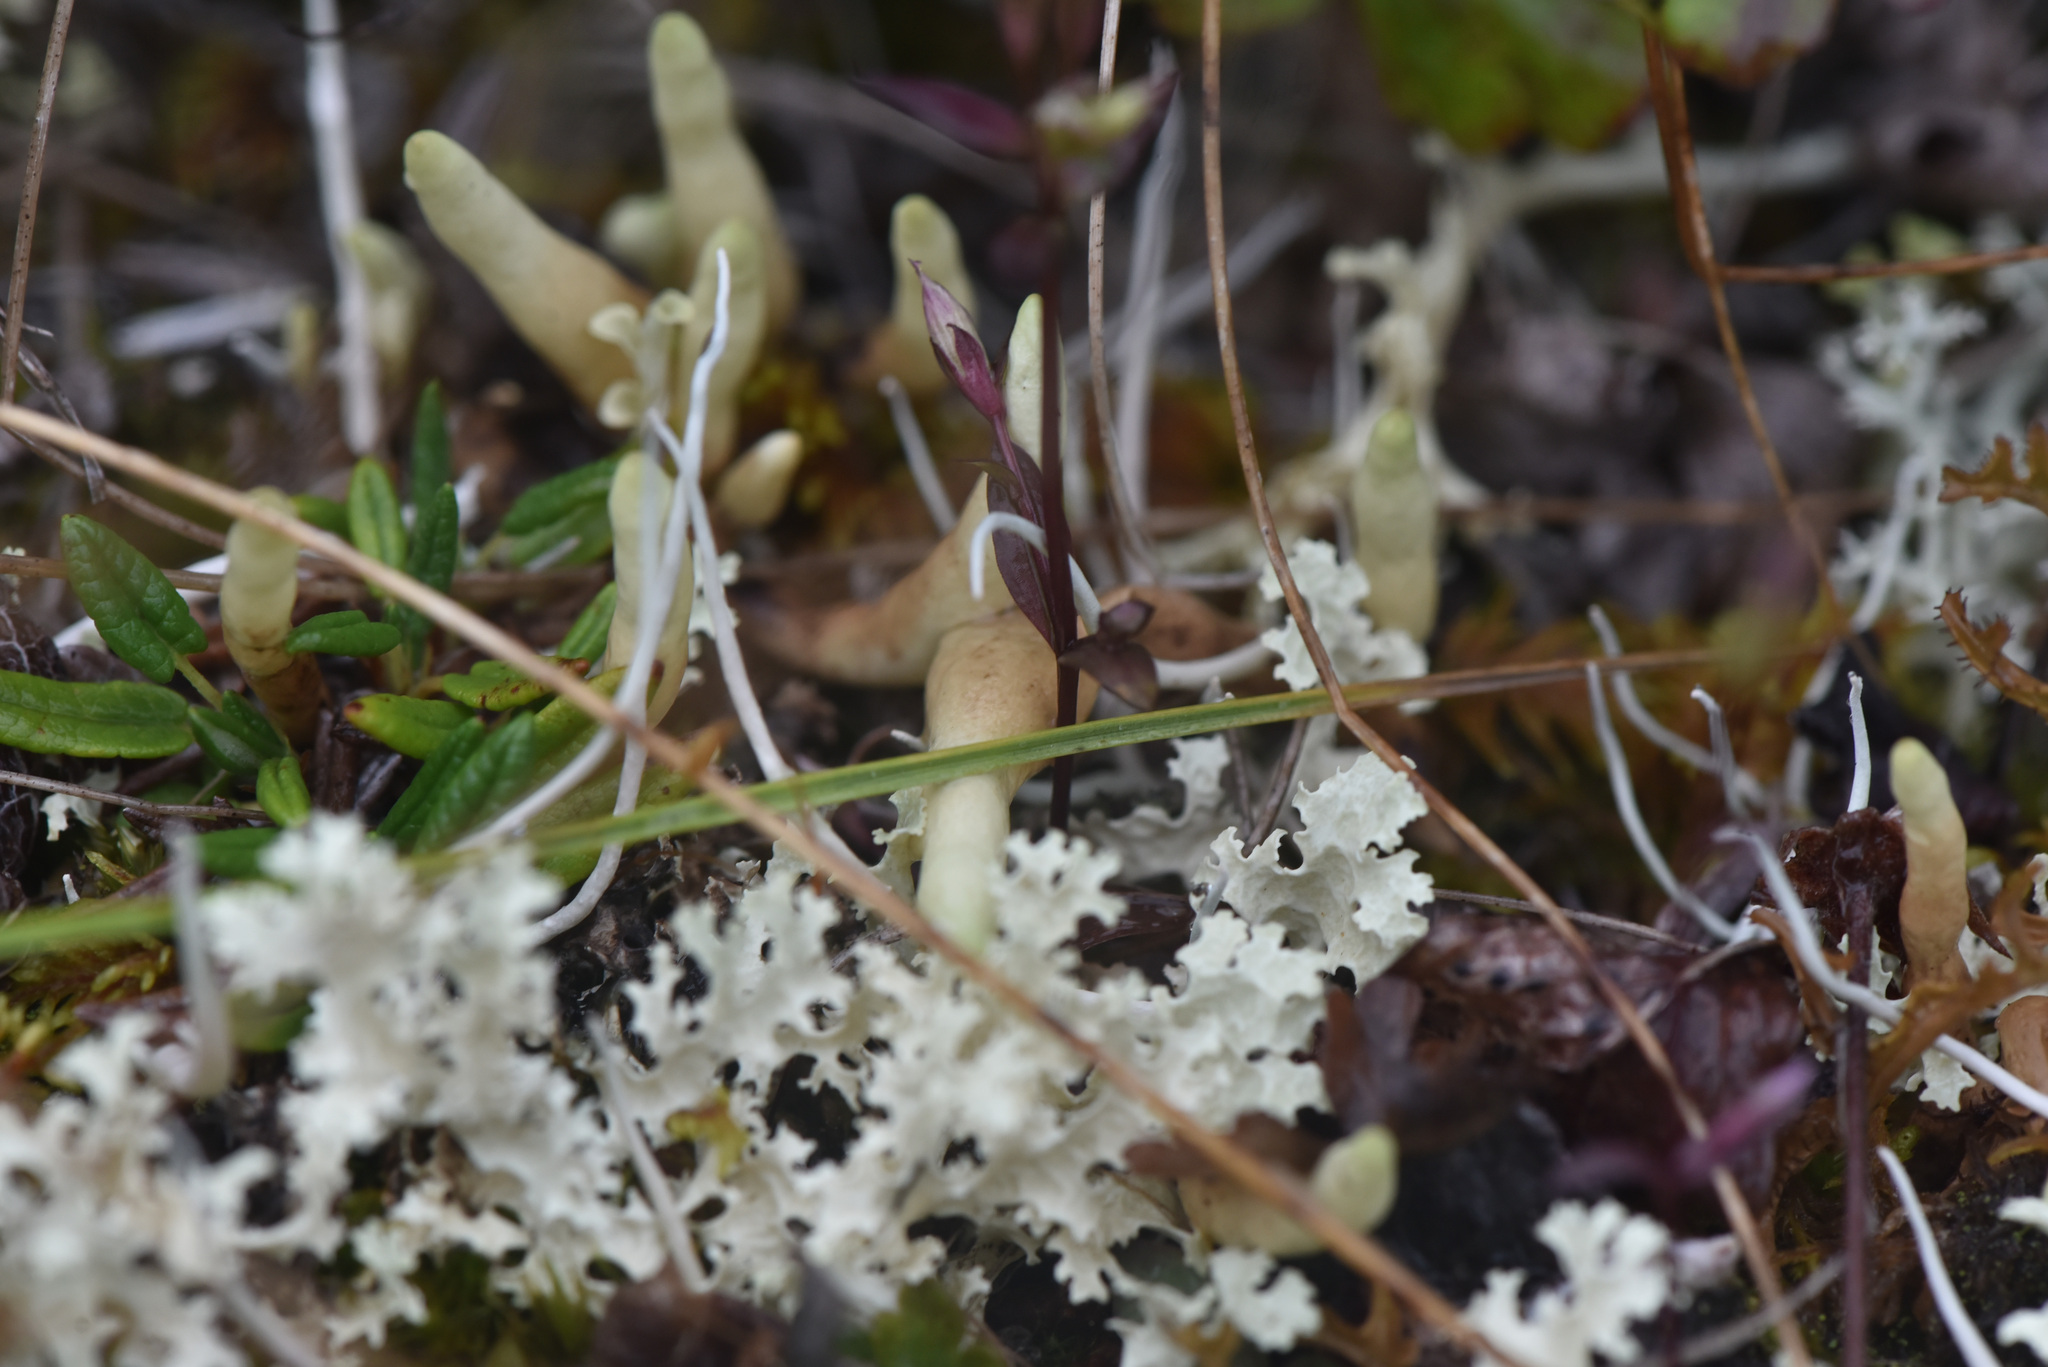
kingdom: Fungi
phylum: Ascomycota
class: Lecanoromycetes
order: Lecanorales
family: Parmeliaceae
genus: Dactylina
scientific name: Dactylina arctica
